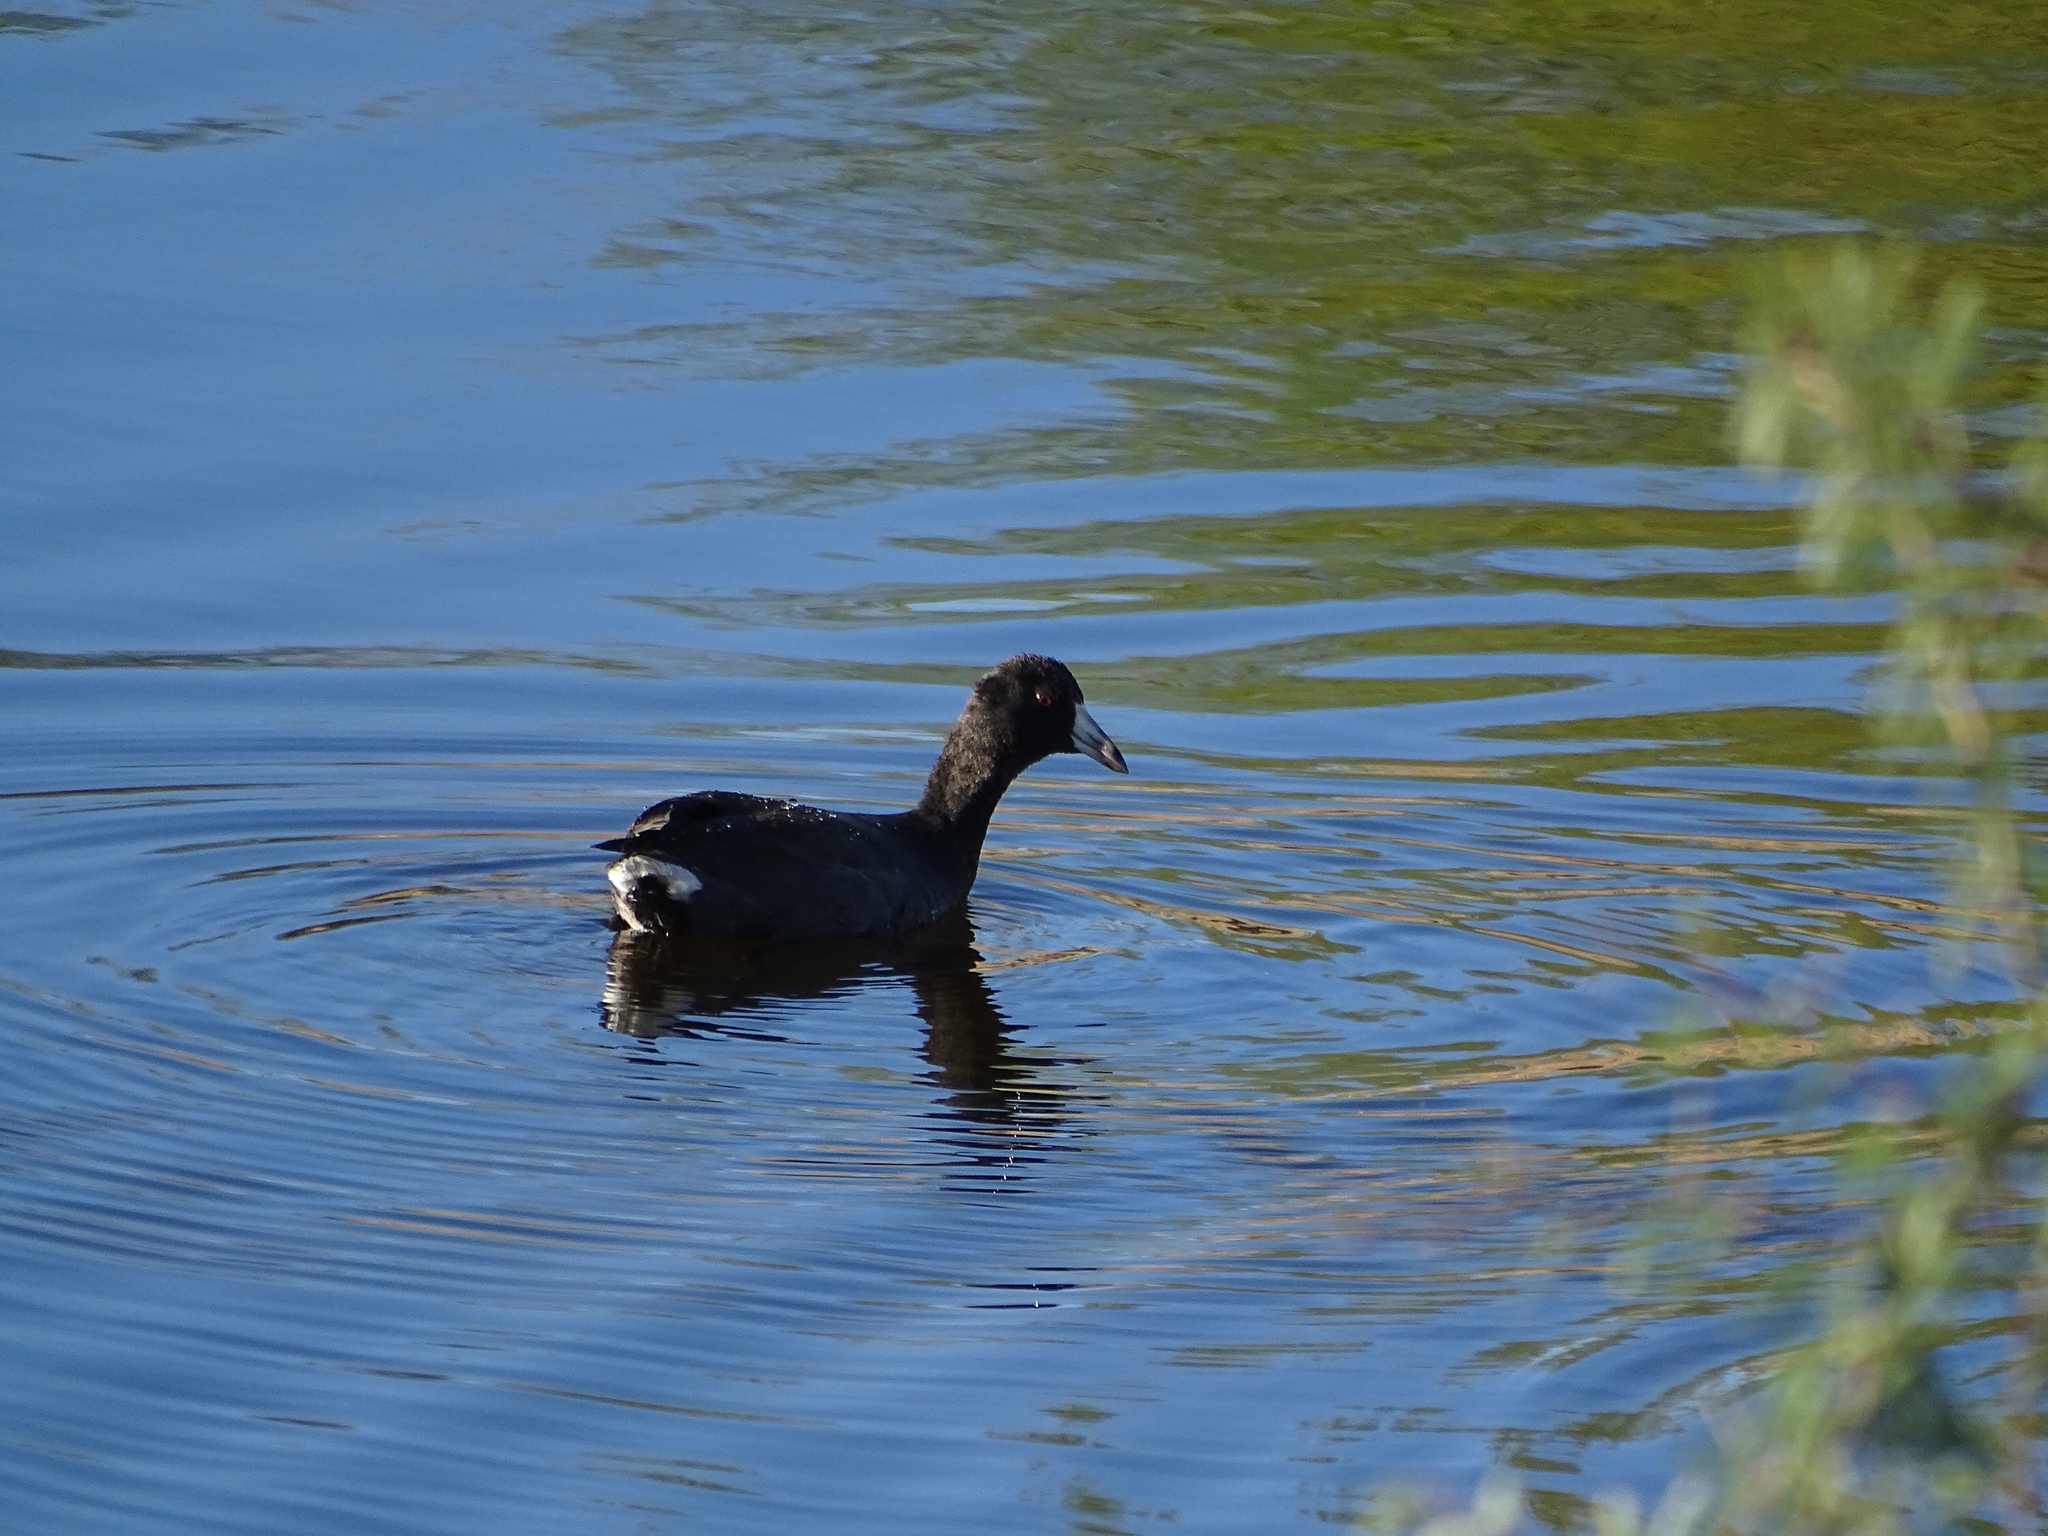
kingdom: Animalia
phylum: Chordata
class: Aves
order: Gruiformes
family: Rallidae
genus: Fulica
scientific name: Fulica americana
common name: American coot
